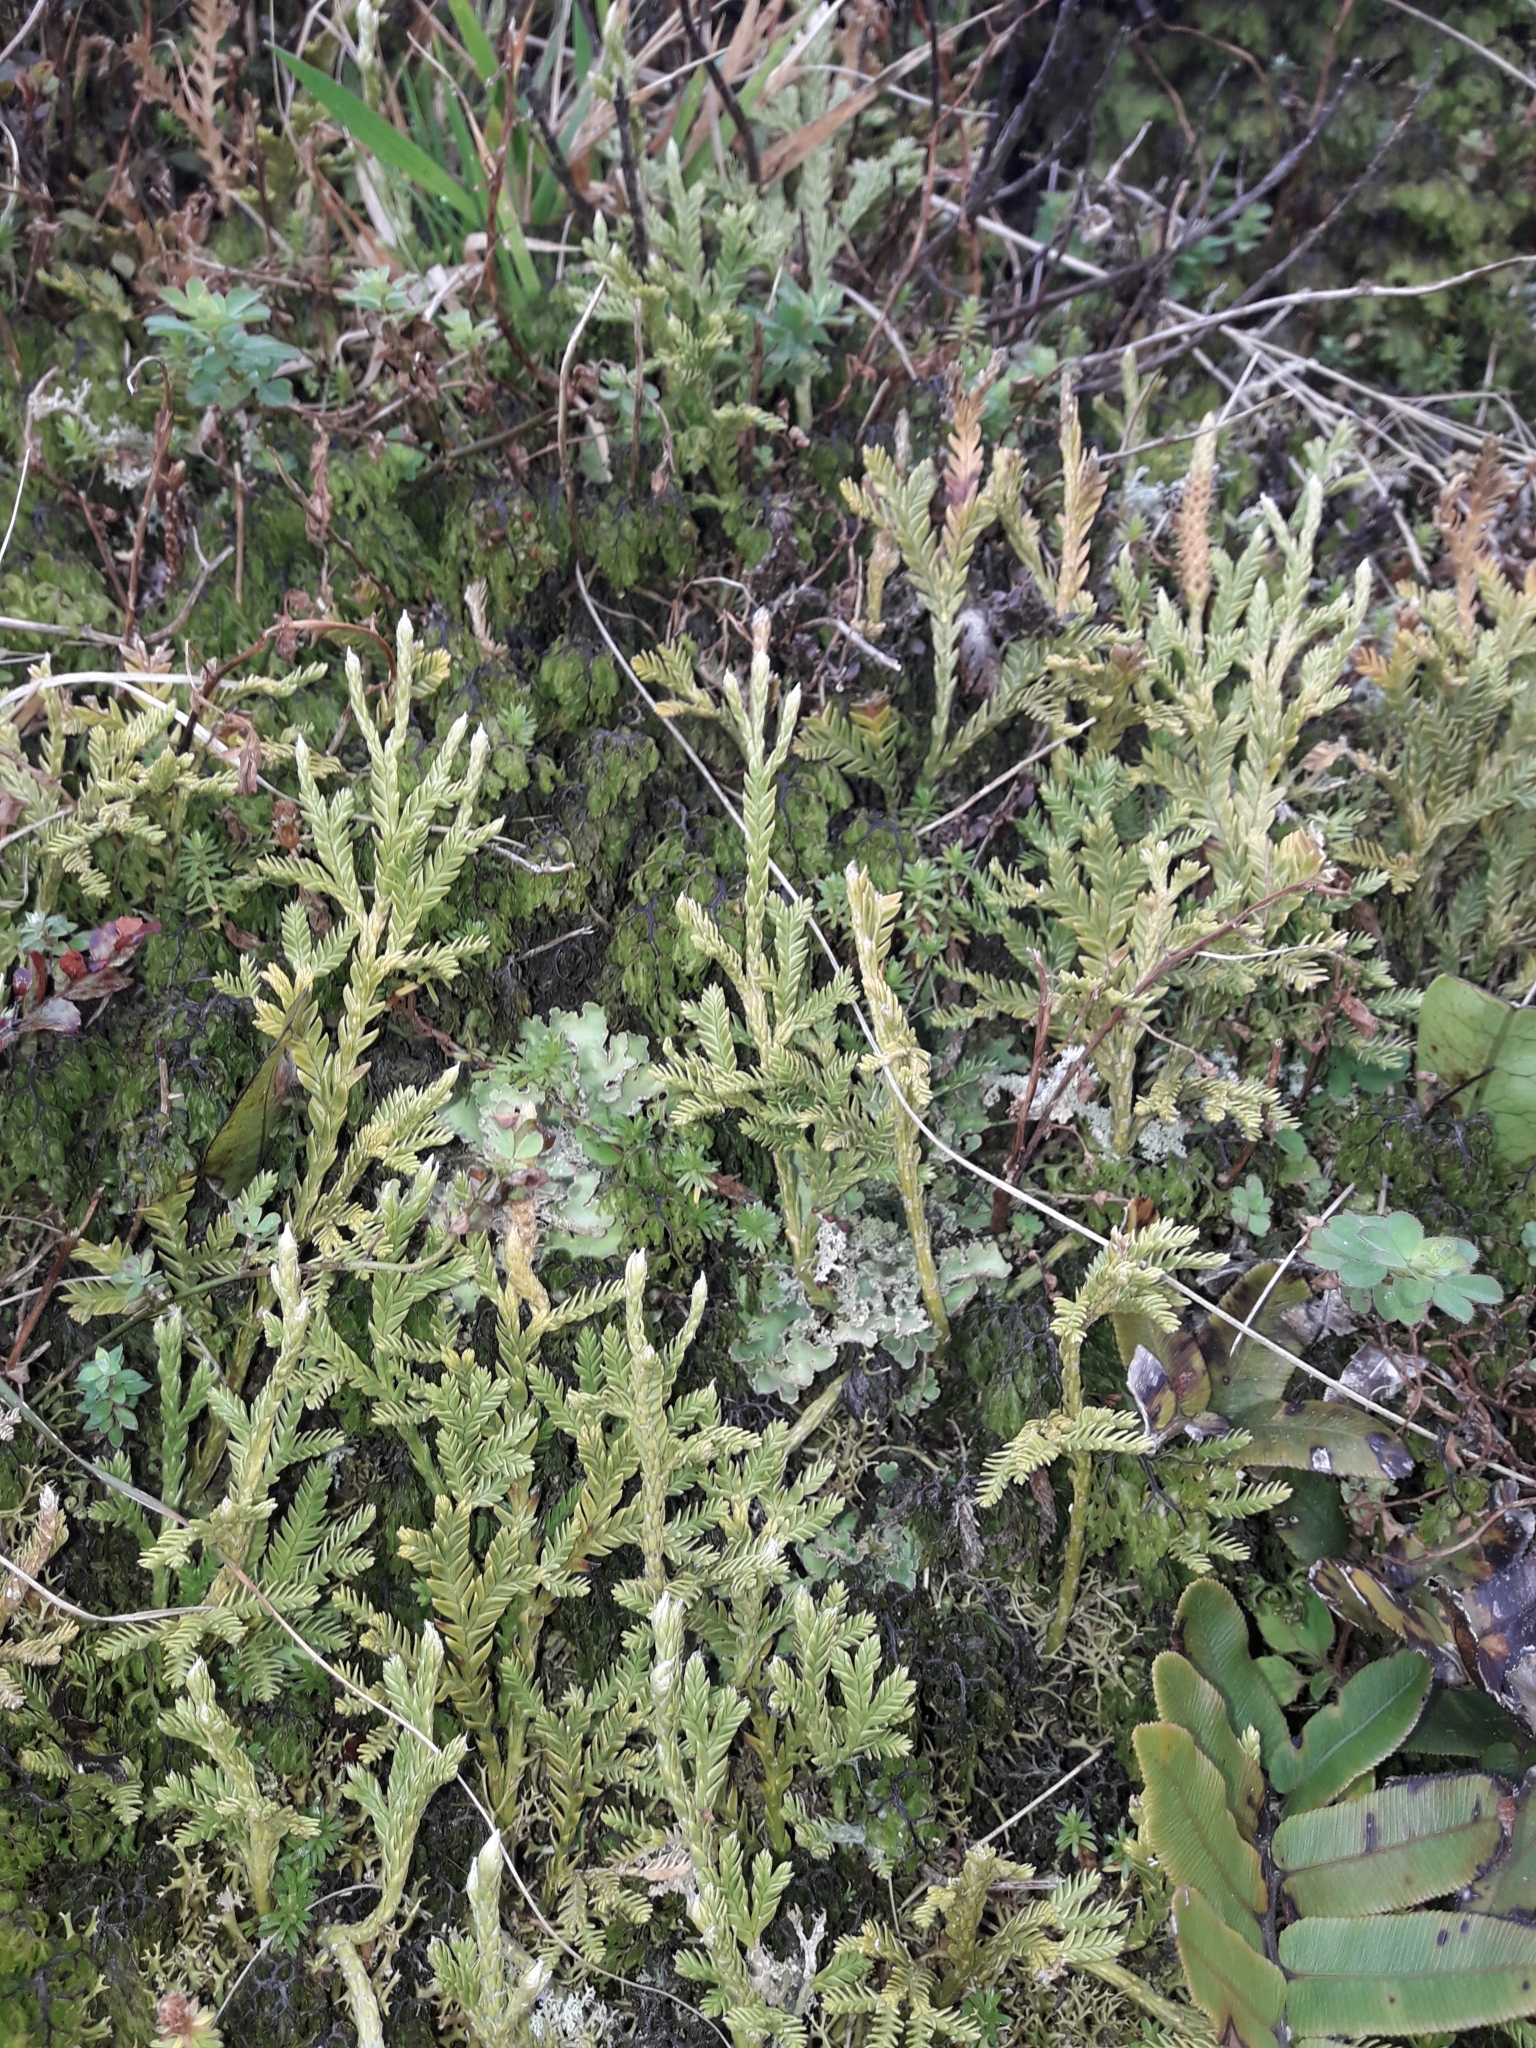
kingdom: Plantae
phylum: Tracheophyta
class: Lycopodiopsida
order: Lycopodiales
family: Lycopodiaceae
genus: Diphasium
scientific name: Diphasium scariosum
